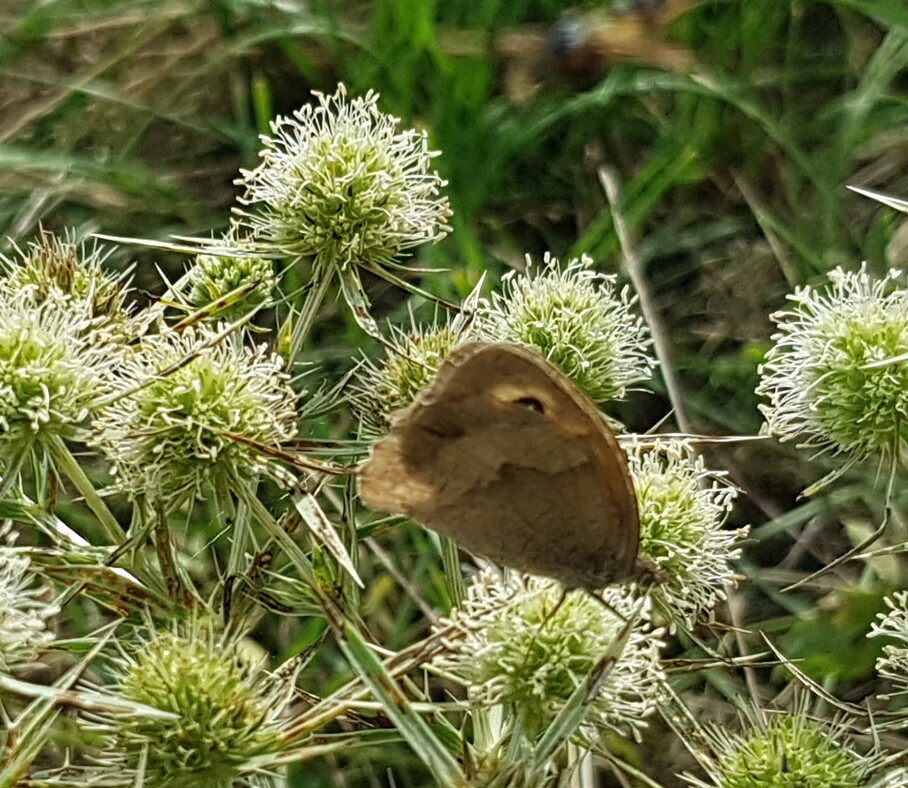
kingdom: Animalia
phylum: Arthropoda
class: Insecta
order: Lepidoptera
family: Nymphalidae
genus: Maniola
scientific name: Maniola jurtina
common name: Meadow brown
